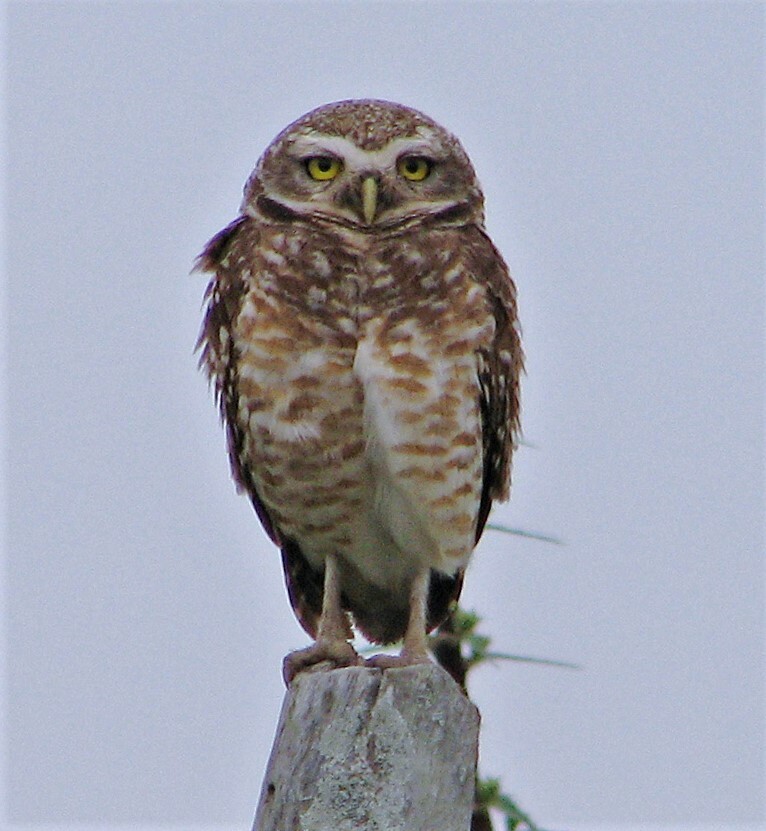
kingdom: Animalia
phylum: Chordata
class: Aves
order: Strigiformes
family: Strigidae
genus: Athene
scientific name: Athene cunicularia
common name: Burrowing owl
